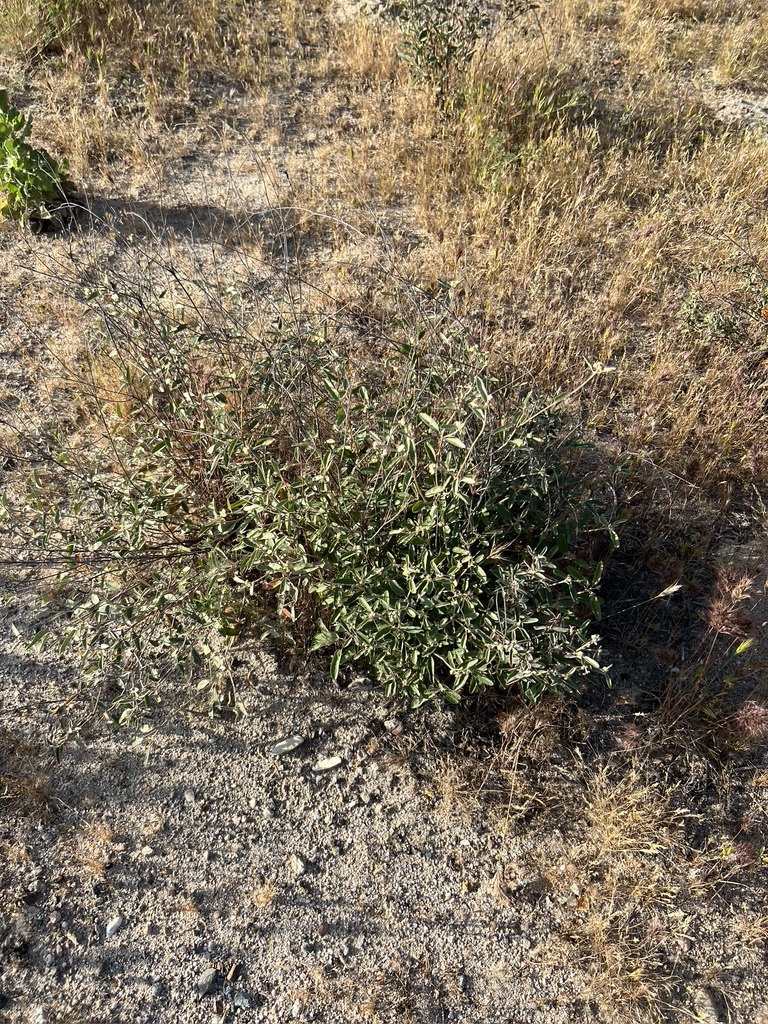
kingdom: Plantae
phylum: Tracheophyta
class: Magnoliopsida
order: Malpighiales
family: Euphorbiaceae
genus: Croton
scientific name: Croton californicus
